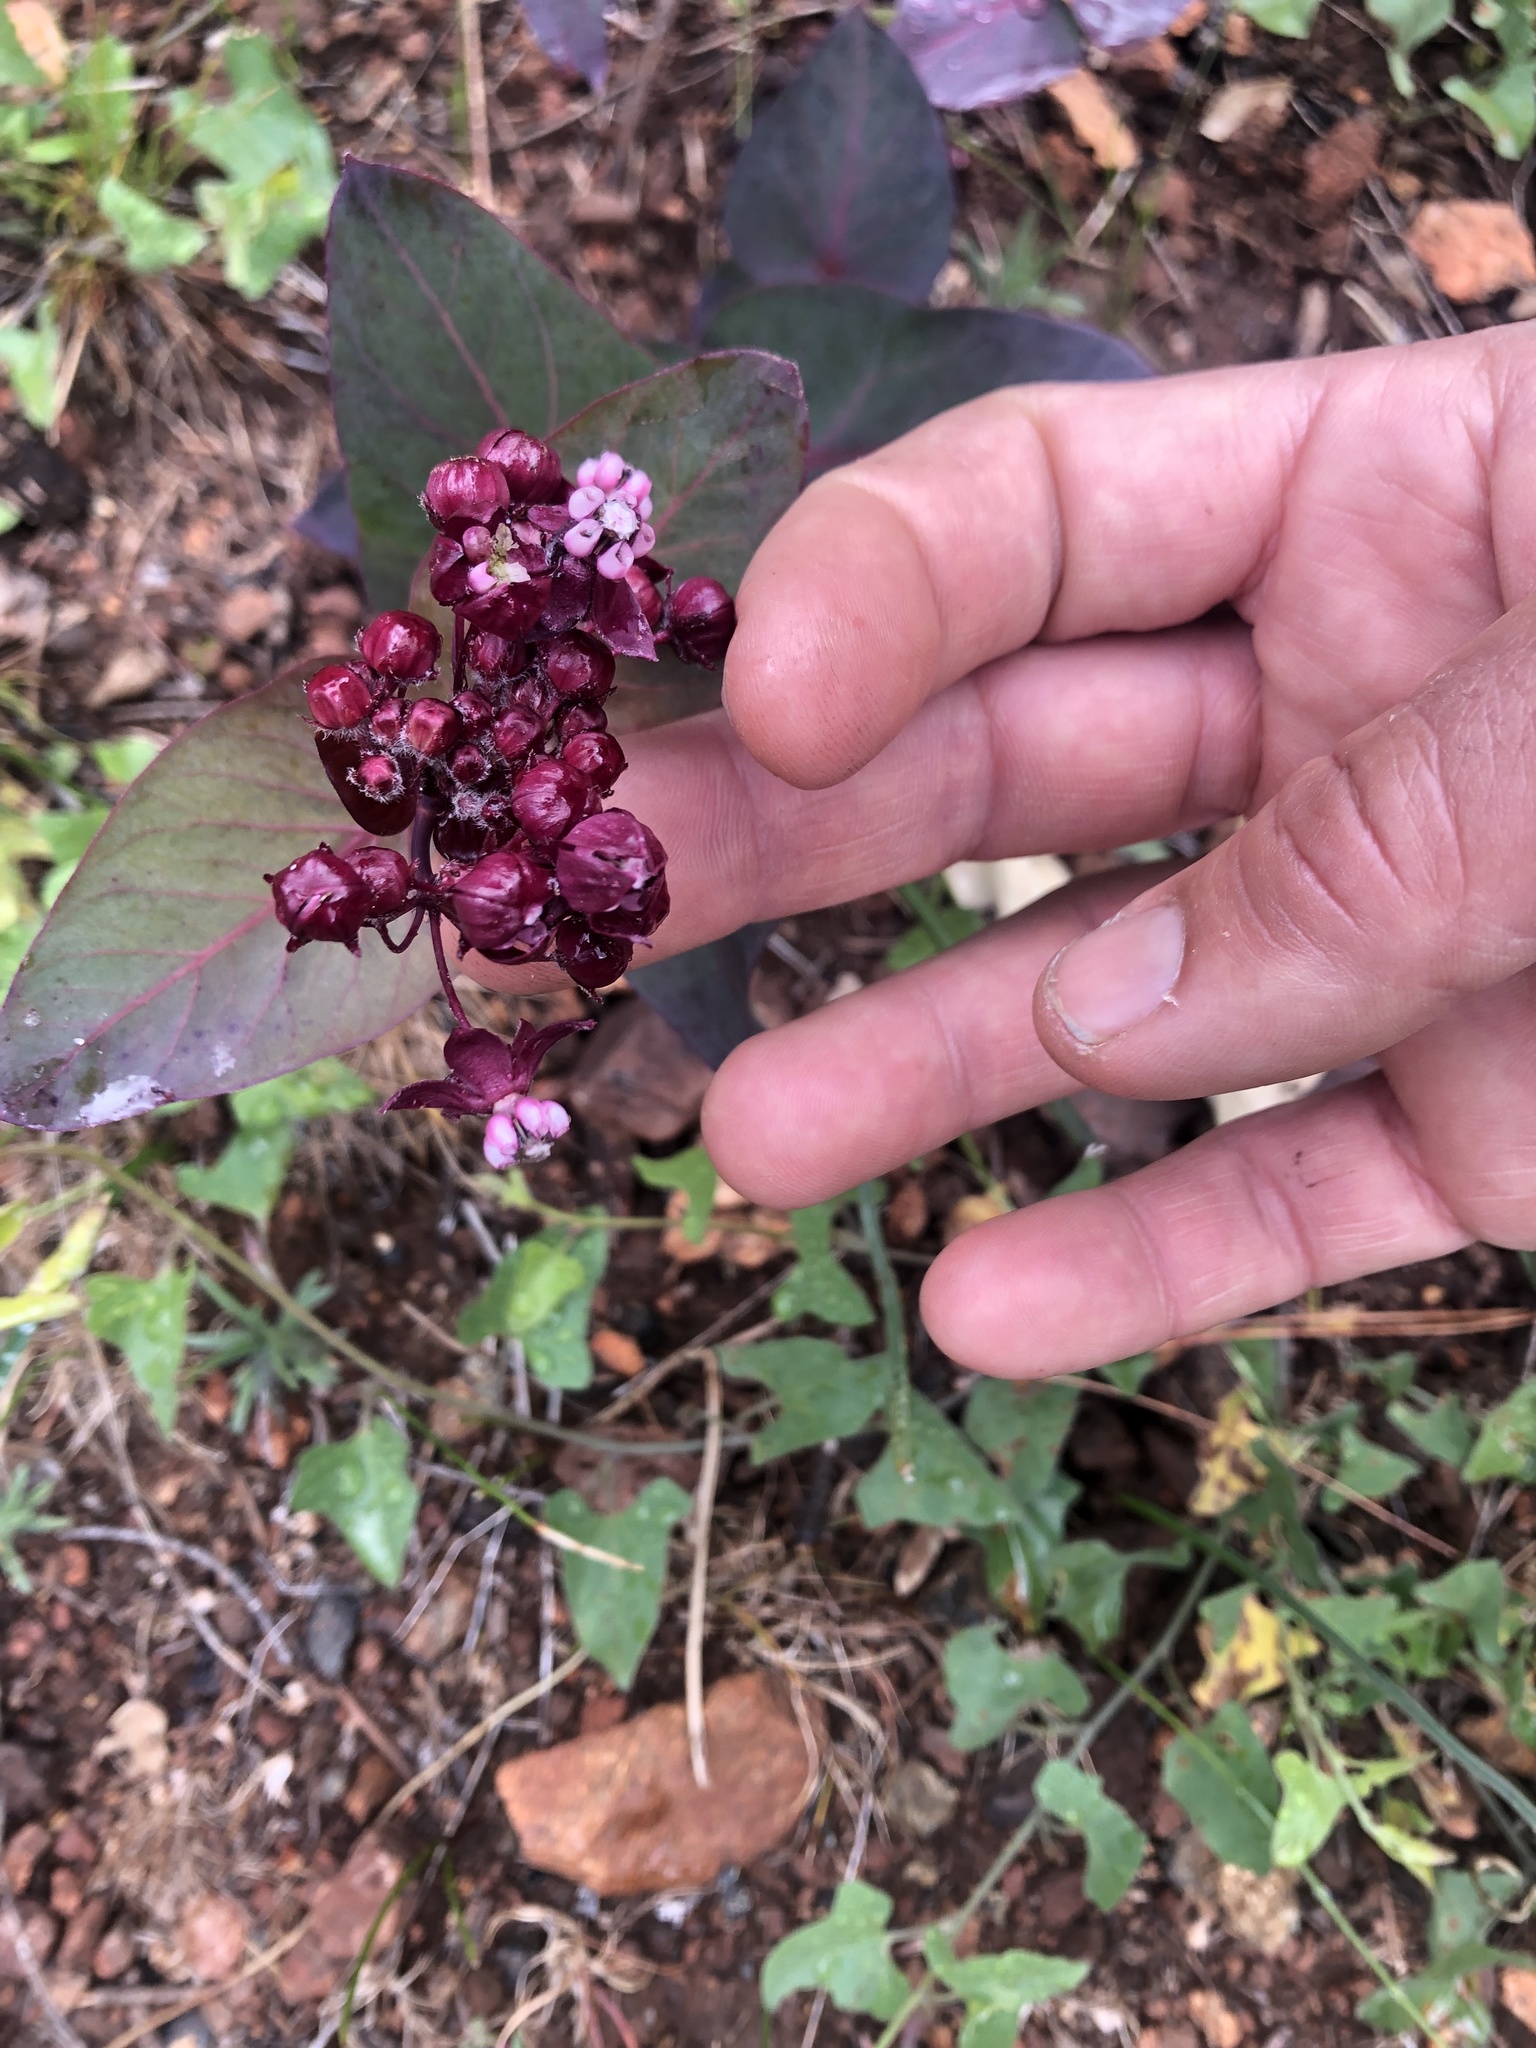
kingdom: Plantae
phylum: Tracheophyta
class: Magnoliopsida
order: Gentianales
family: Apocynaceae
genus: Asclepias
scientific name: Asclepias cordifolia
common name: Purple milkweed
